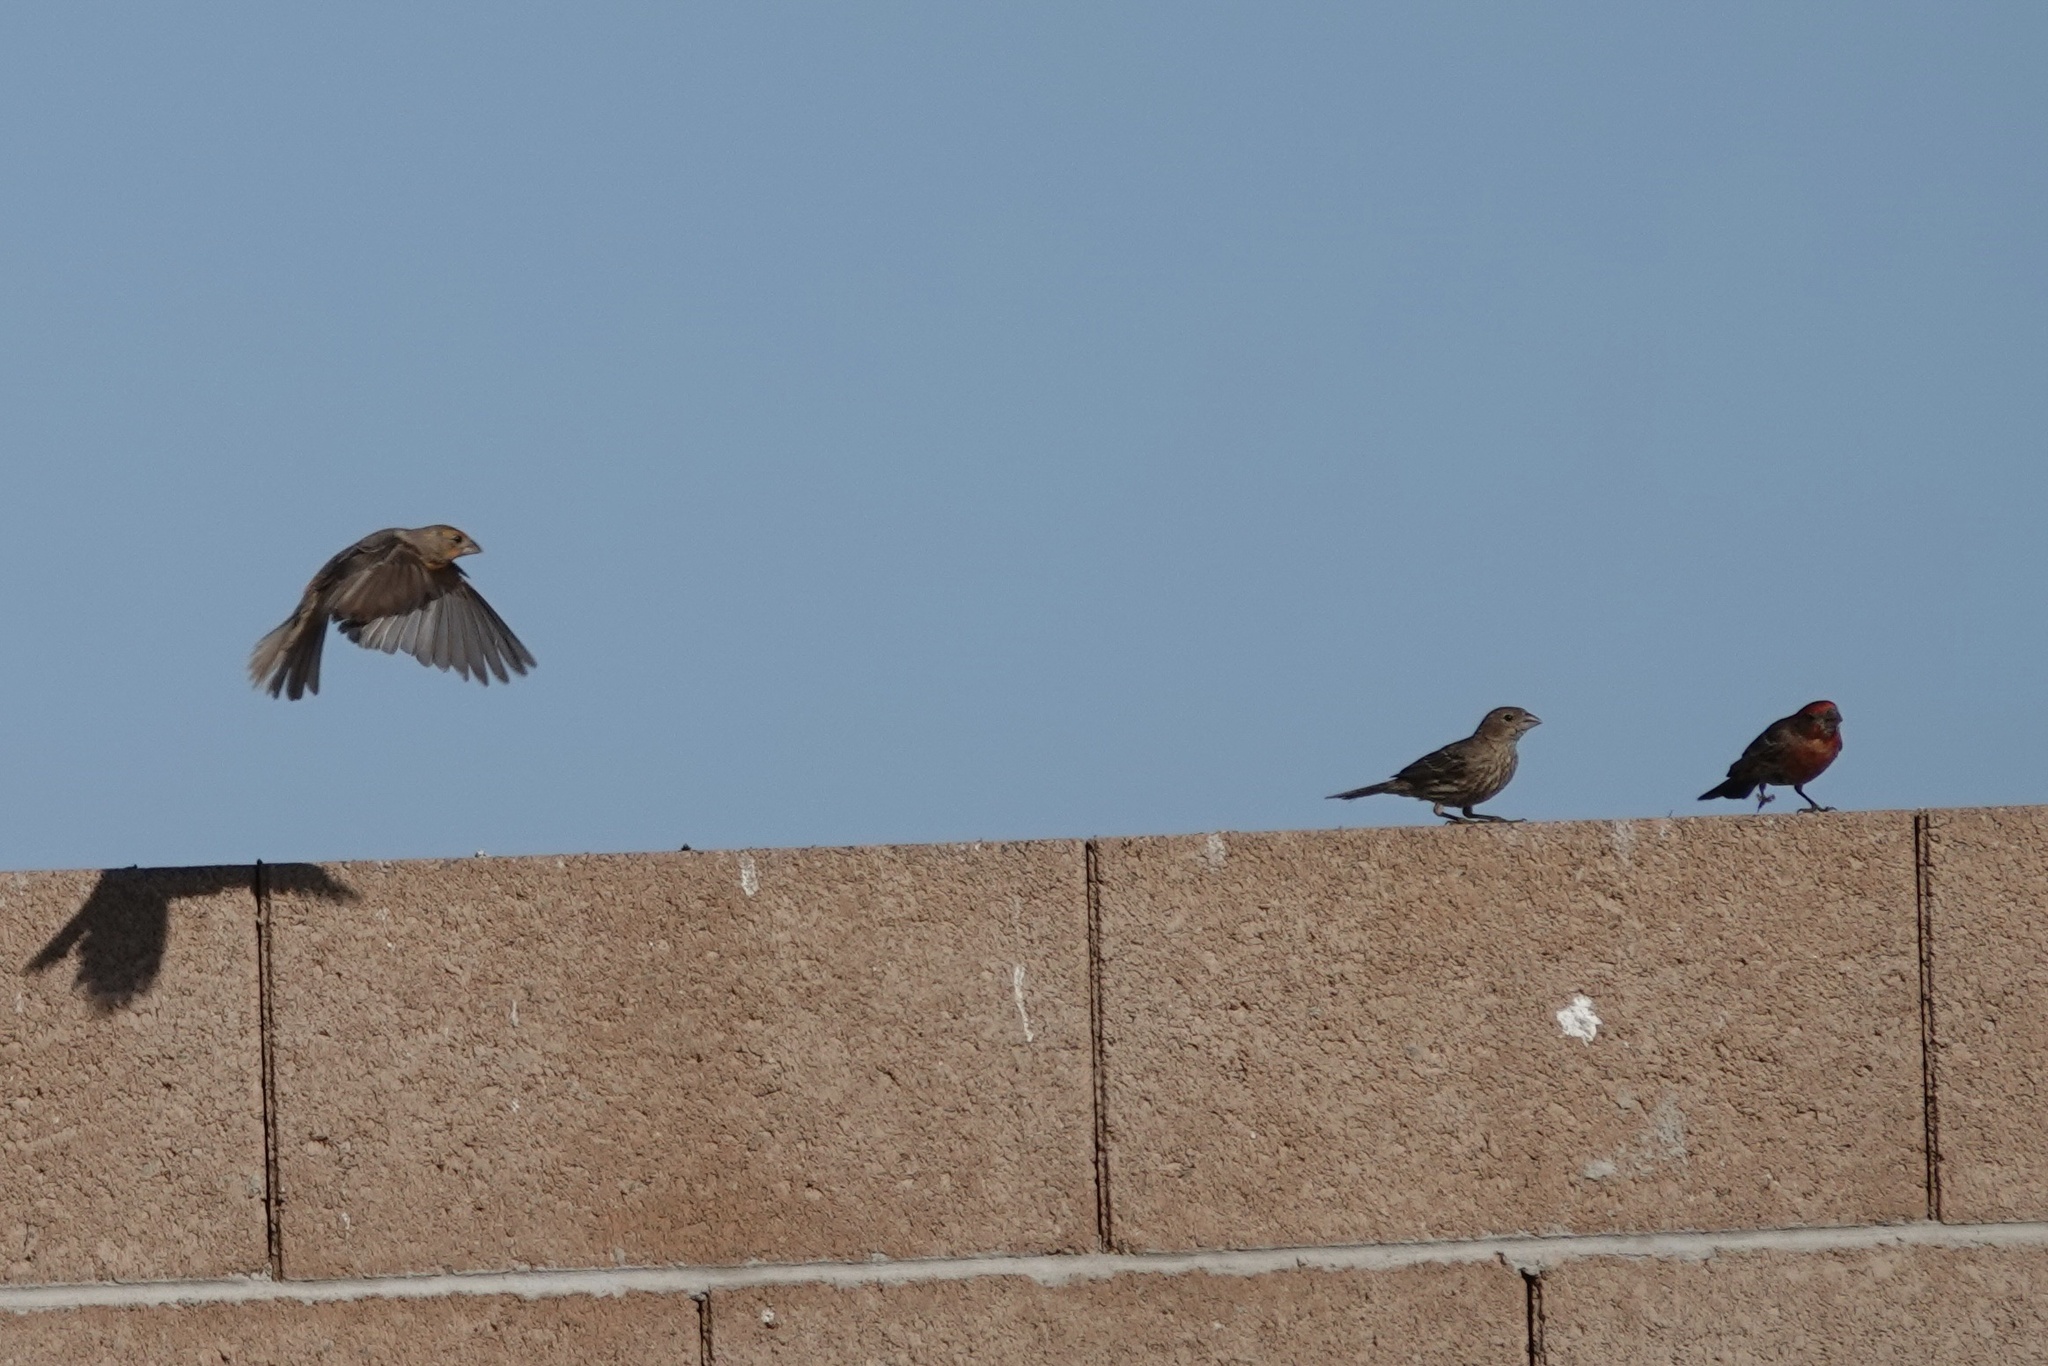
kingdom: Animalia
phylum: Chordata
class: Aves
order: Passeriformes
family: Fringillidae
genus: Haemorhous
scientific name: Haemorhous mexicanus
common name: House finch
